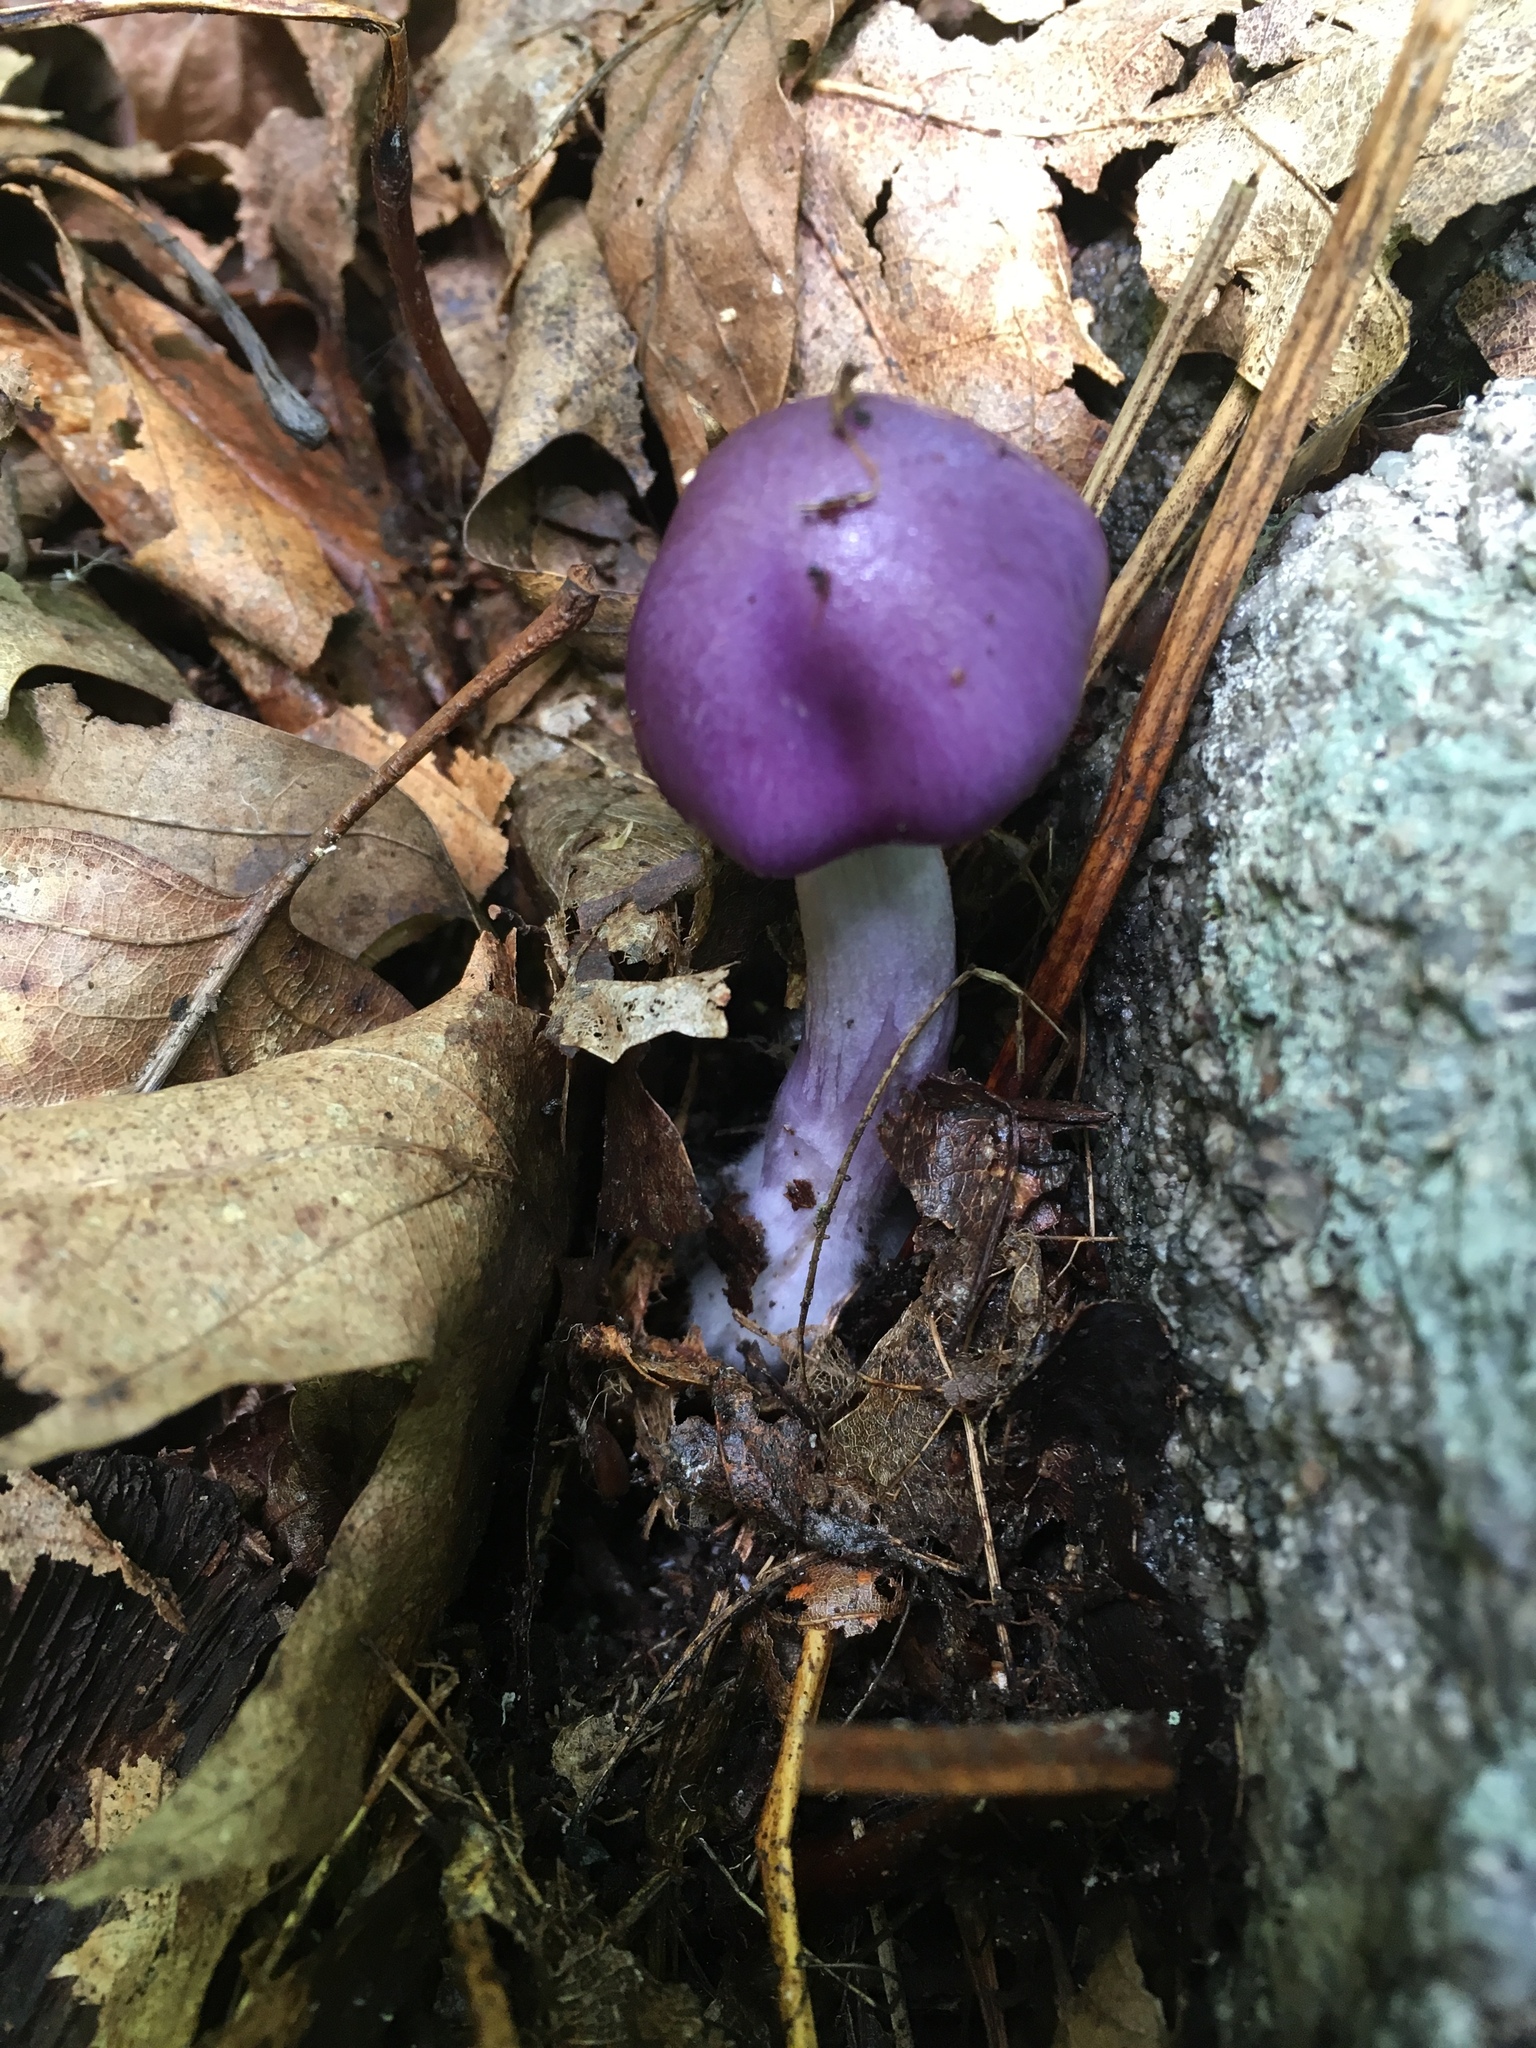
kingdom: Fungi
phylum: Basidiomycota
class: Agaricomycetes
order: Agaricales
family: Cortinariaceae
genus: Cortinarius
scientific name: Cortinarius iodes
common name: Viscid violet cort
